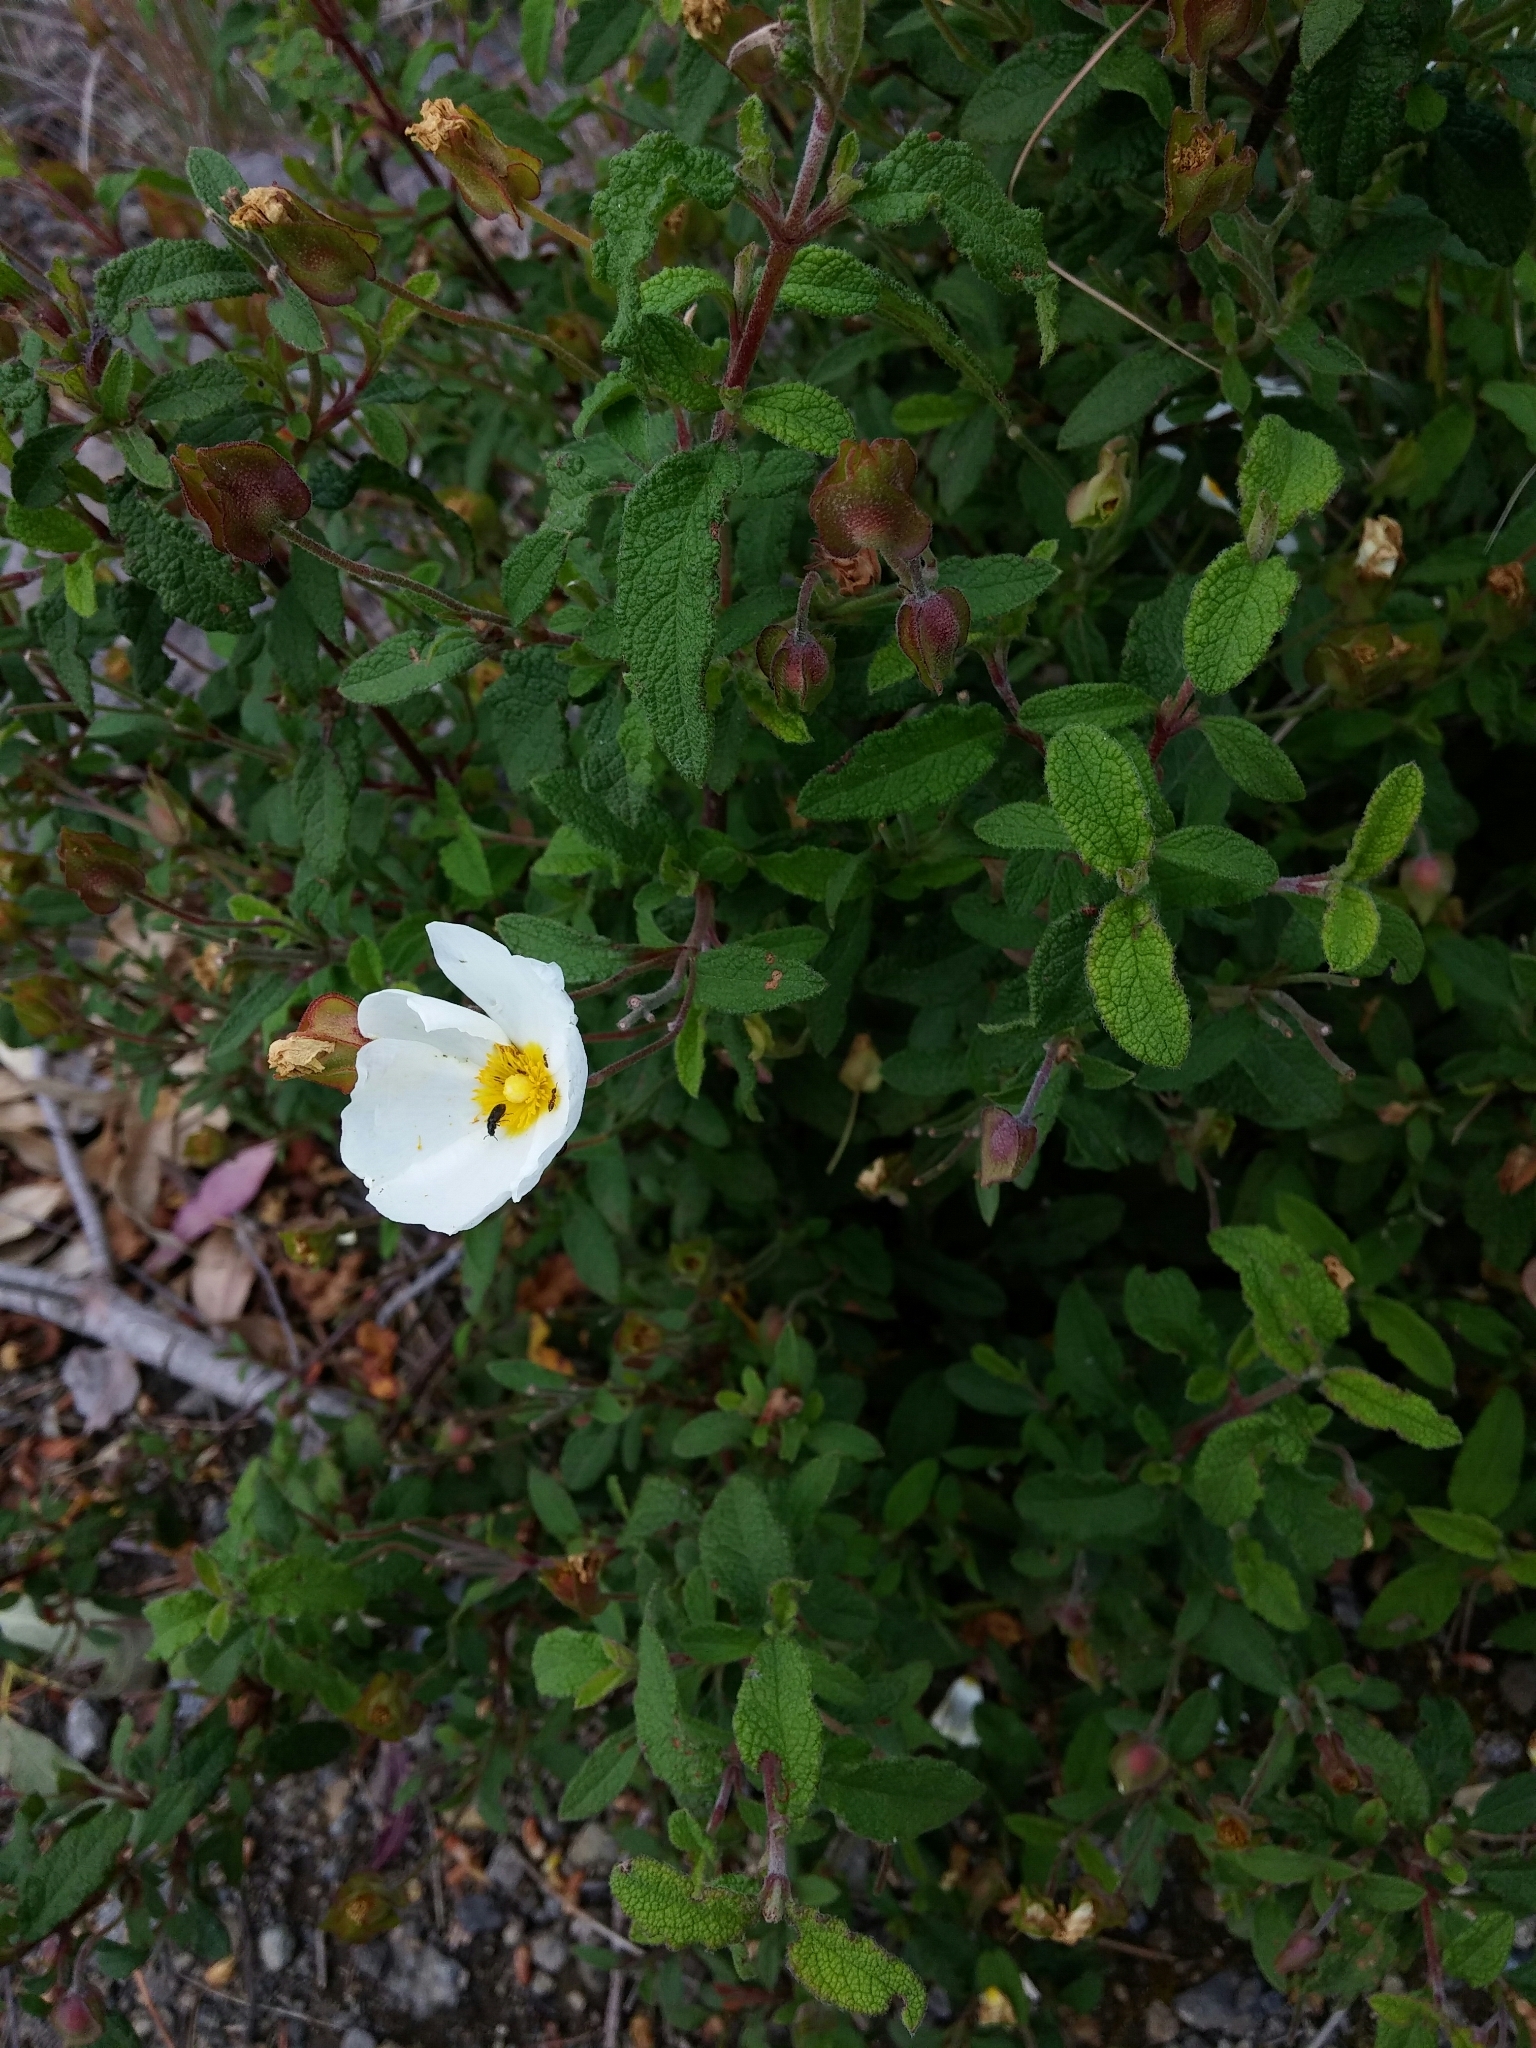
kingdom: Plantae
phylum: Tracheophyta
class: Magnoliopsida
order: Malvales
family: Cistaceae
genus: Cistus
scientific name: Cistus salviifolius
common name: Salvia cistus
